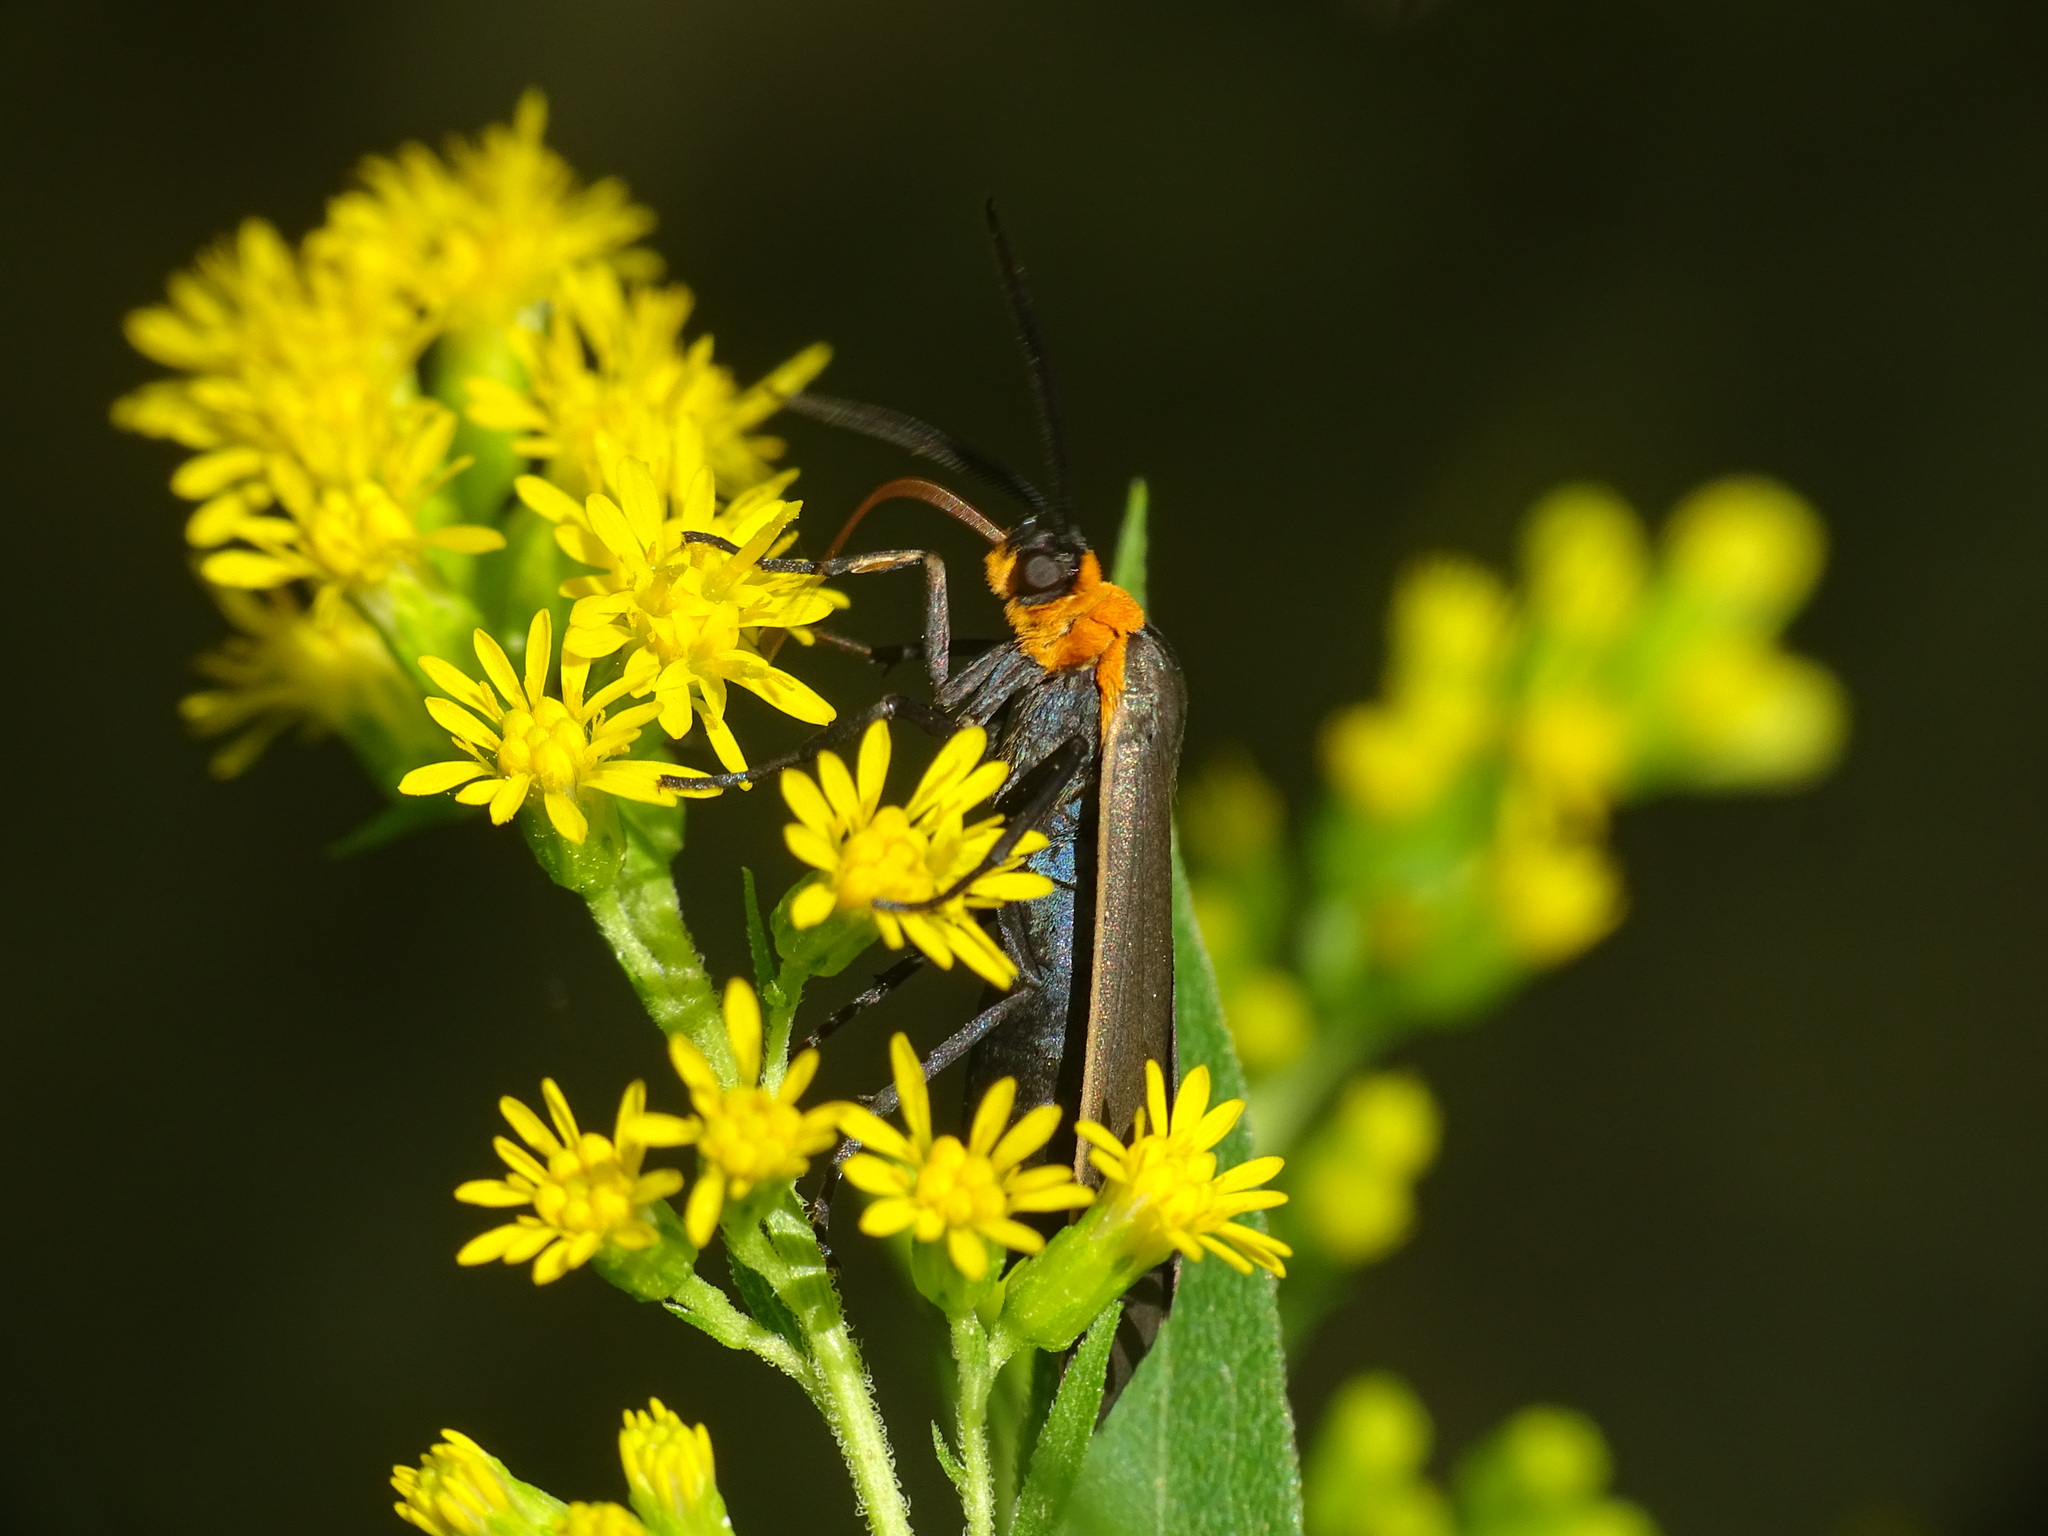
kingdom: Animalia
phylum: Arthropoda
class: Insecta
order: Lepidoptera
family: Erebidae
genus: Cisseps
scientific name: Cisseps fulvicollis
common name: Yellow-collared scape moth
